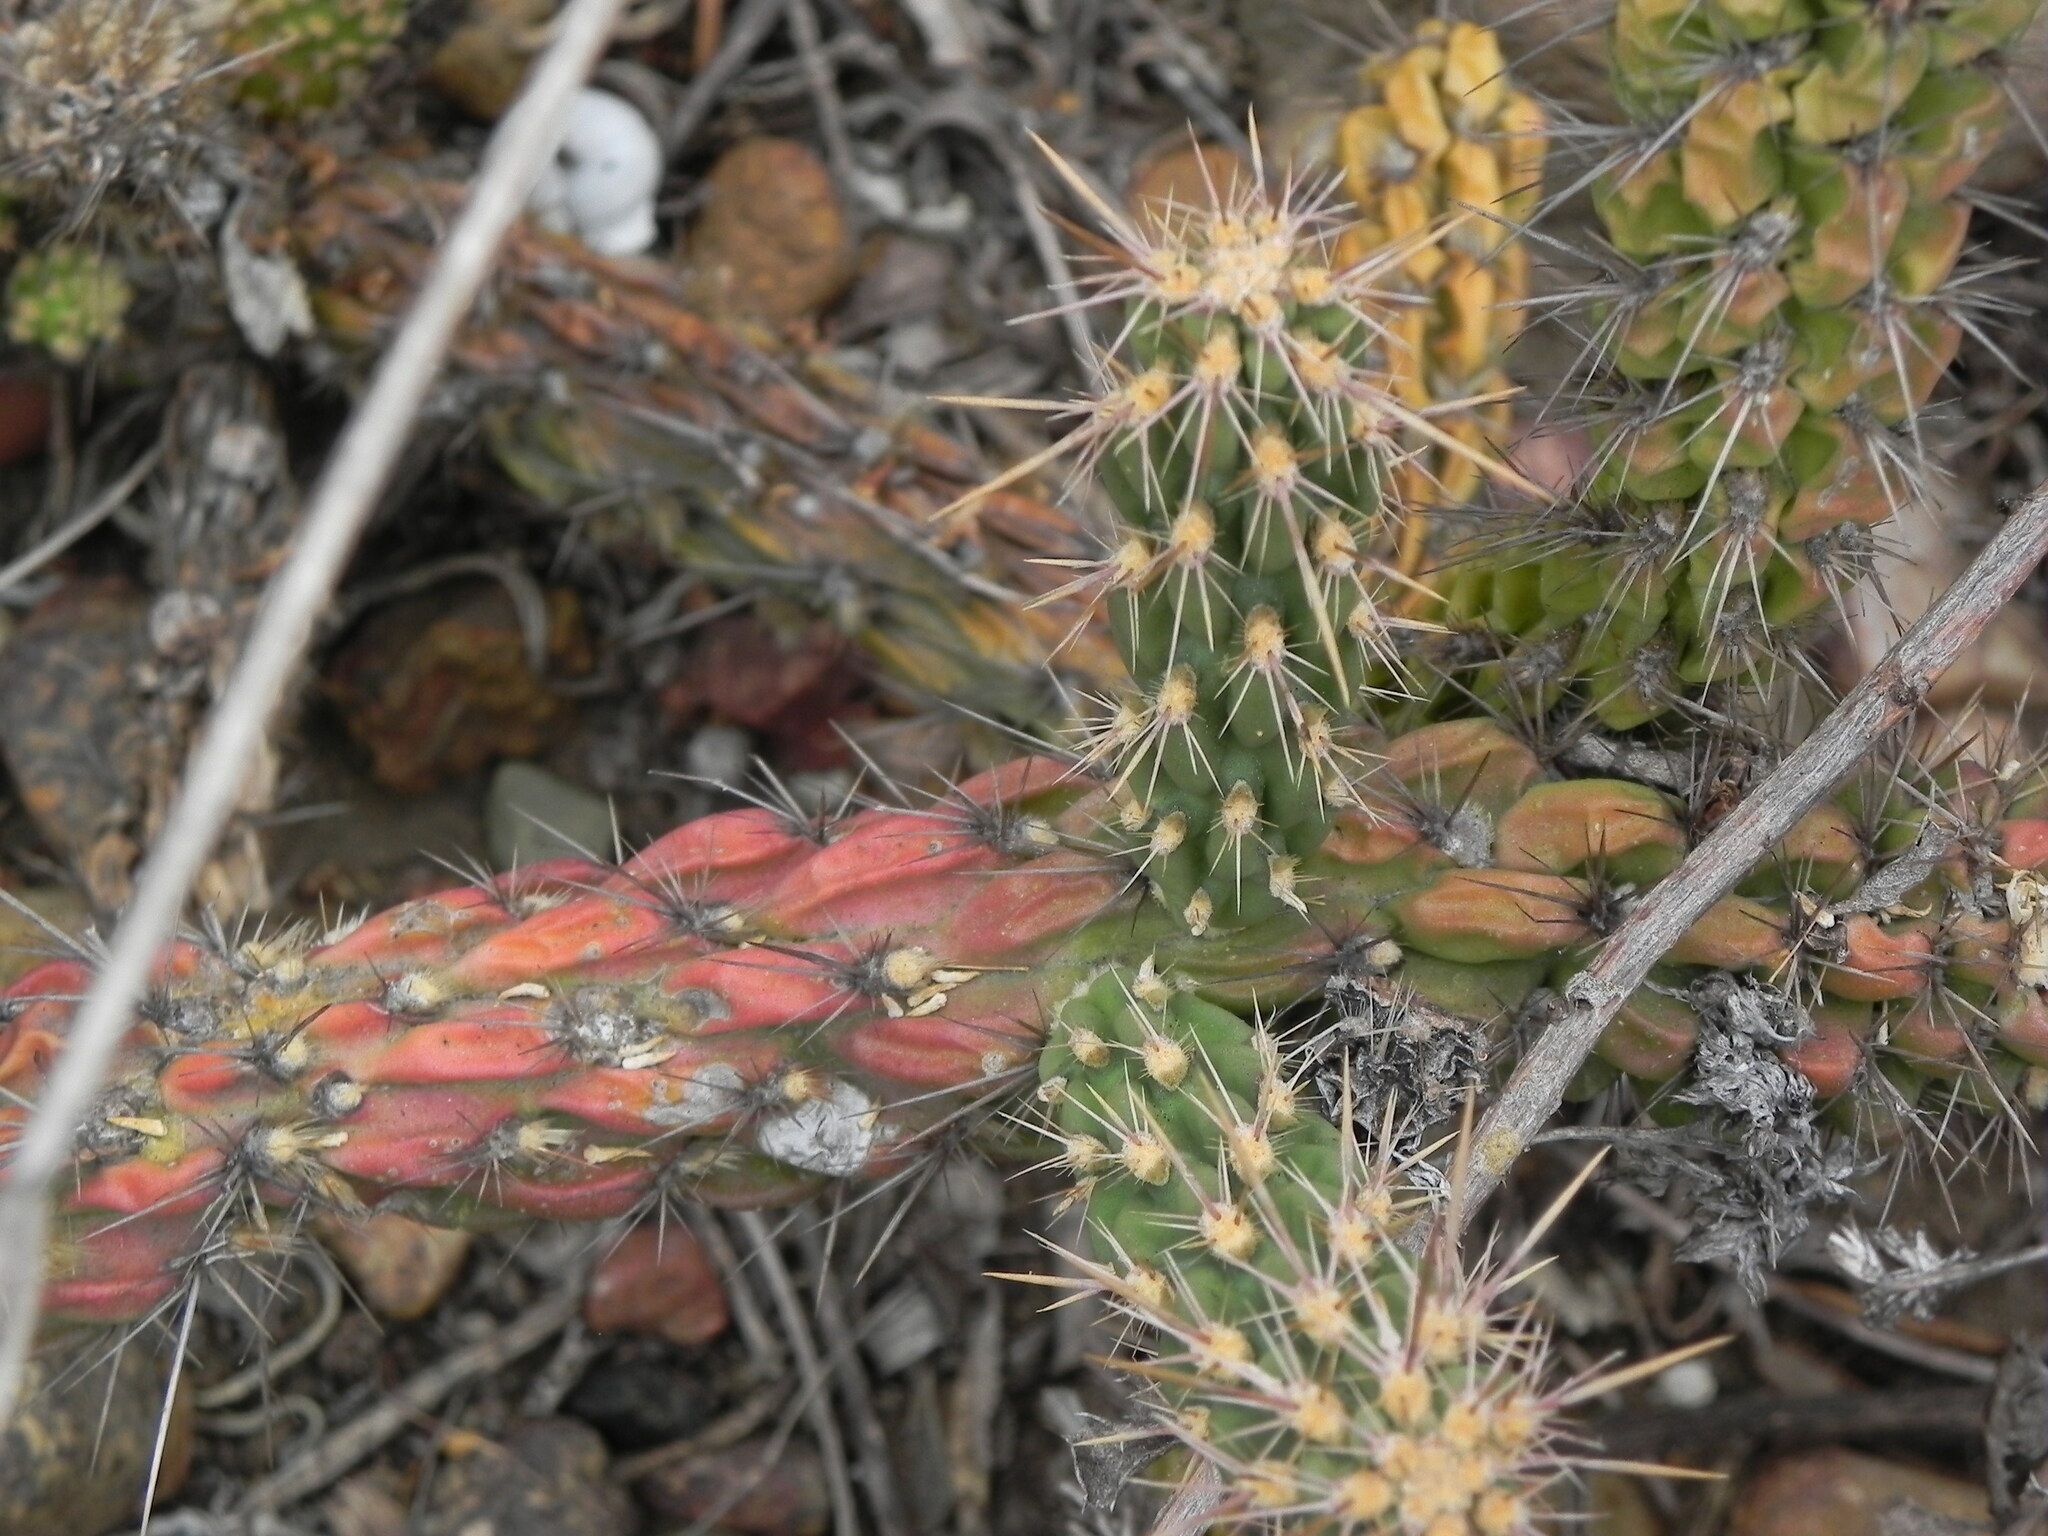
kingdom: Plantae
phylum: Tracheophyta
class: Magnoliopsida
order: Caryophyllales
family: Cactaceae
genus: Cylindropuntia
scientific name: Cylindropuntia californica
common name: Snake cholla
